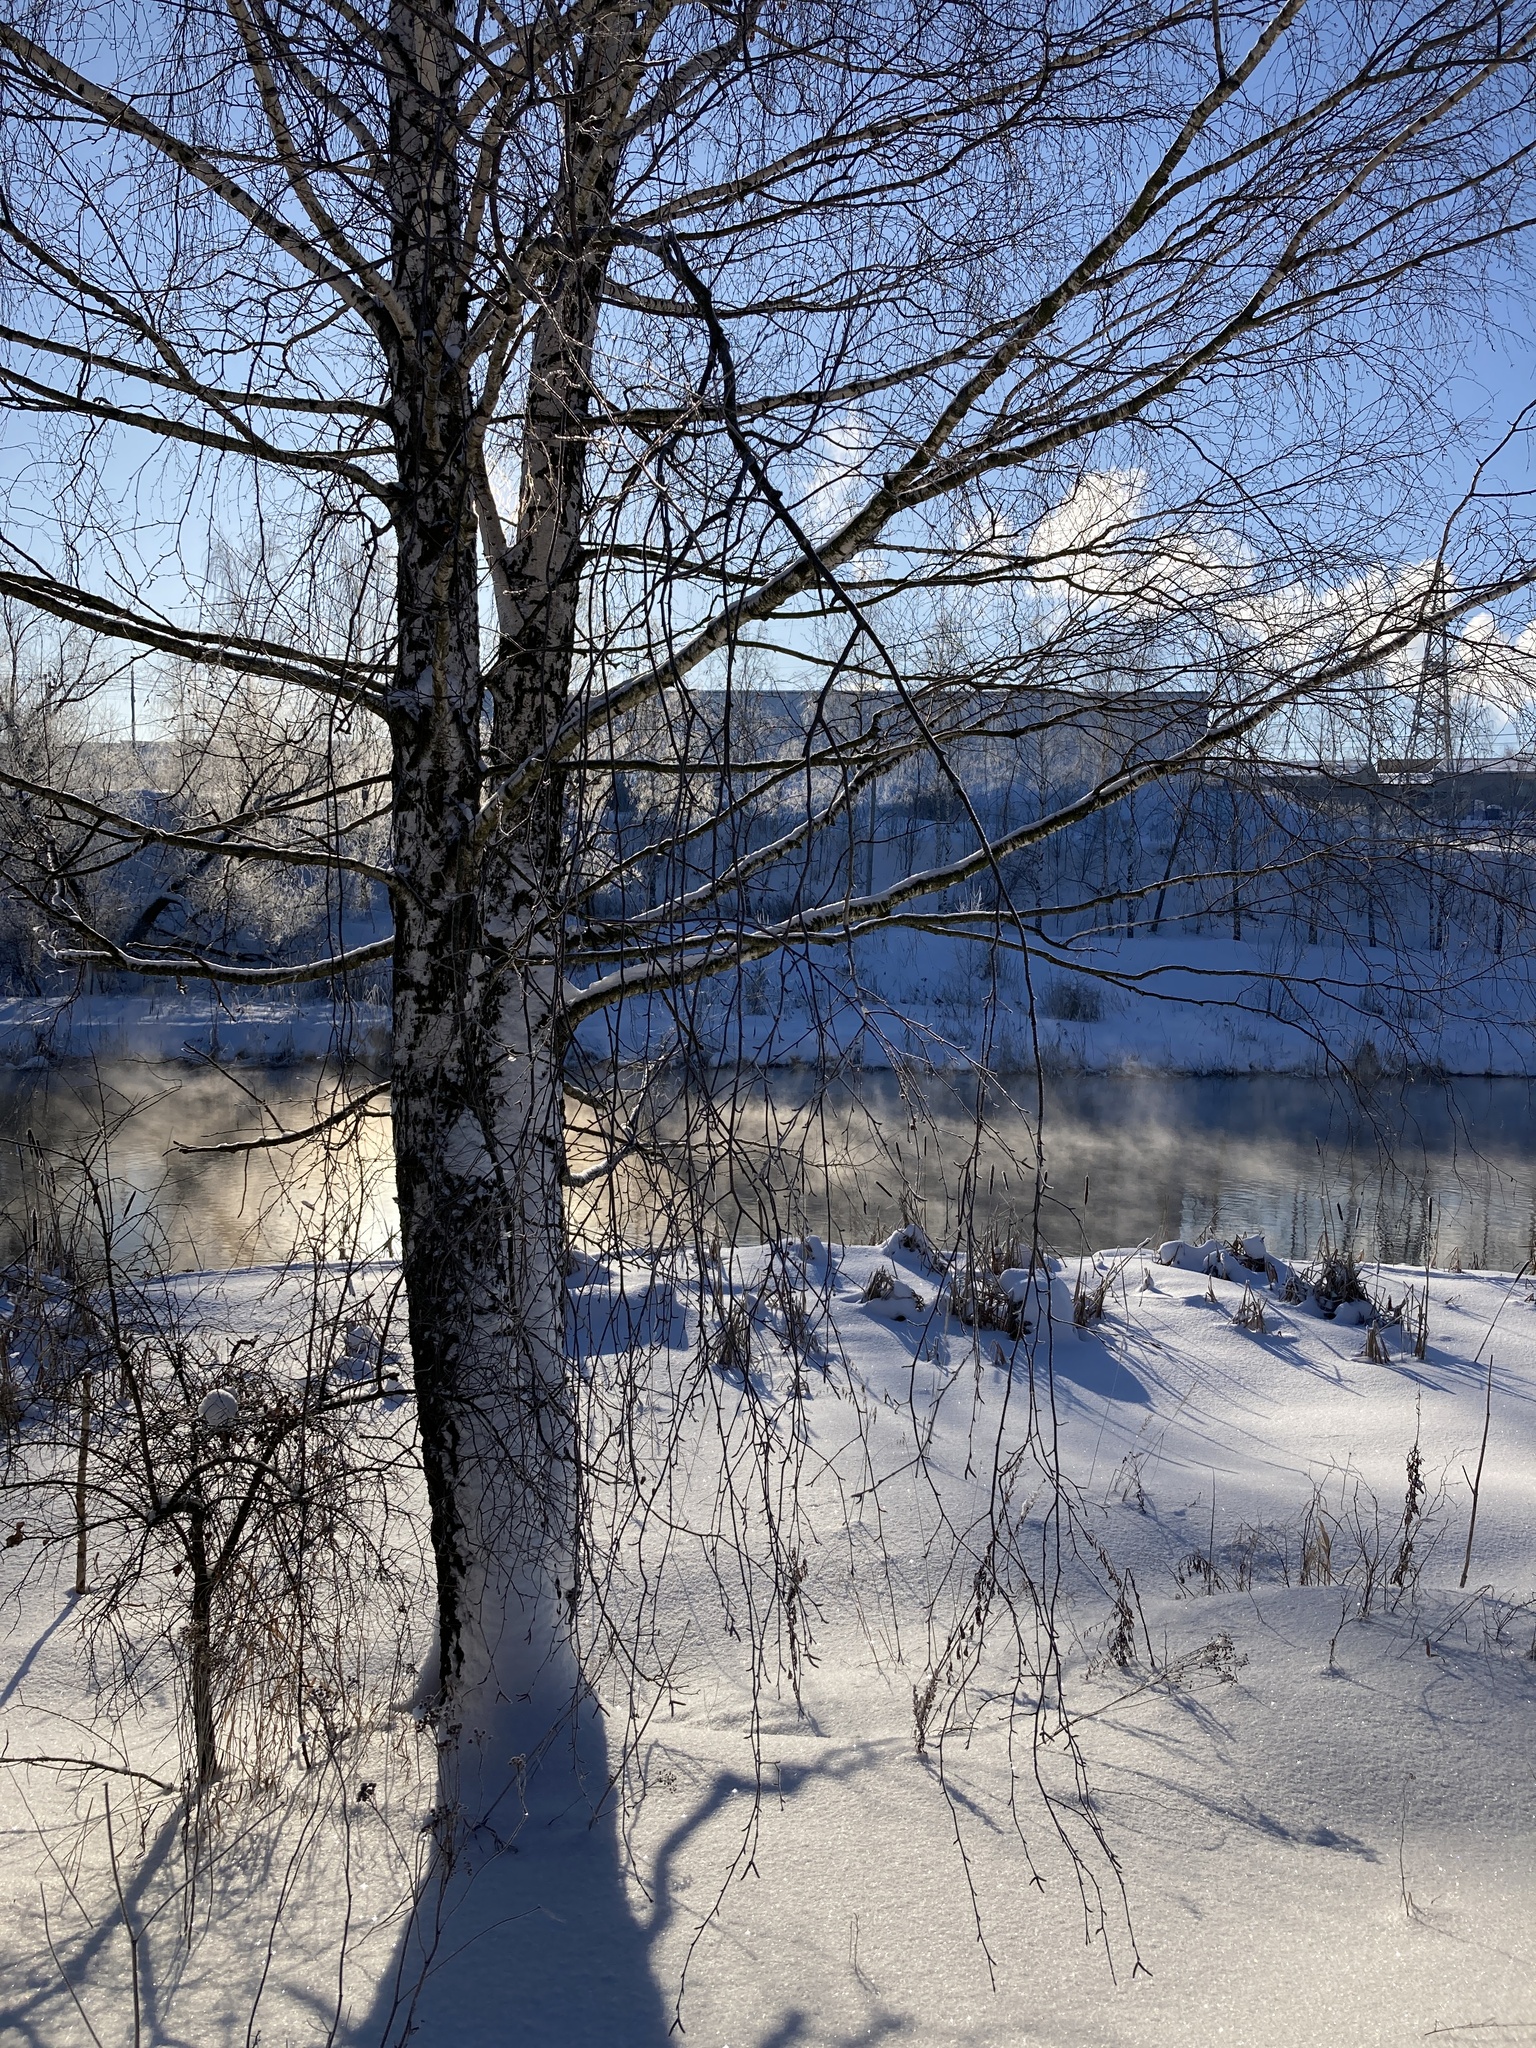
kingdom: Plantae
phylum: Tracheophyta
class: Magnoliopsida
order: Fagales
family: Betulaceae
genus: Betula
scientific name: Betula pendula
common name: Silver birch
